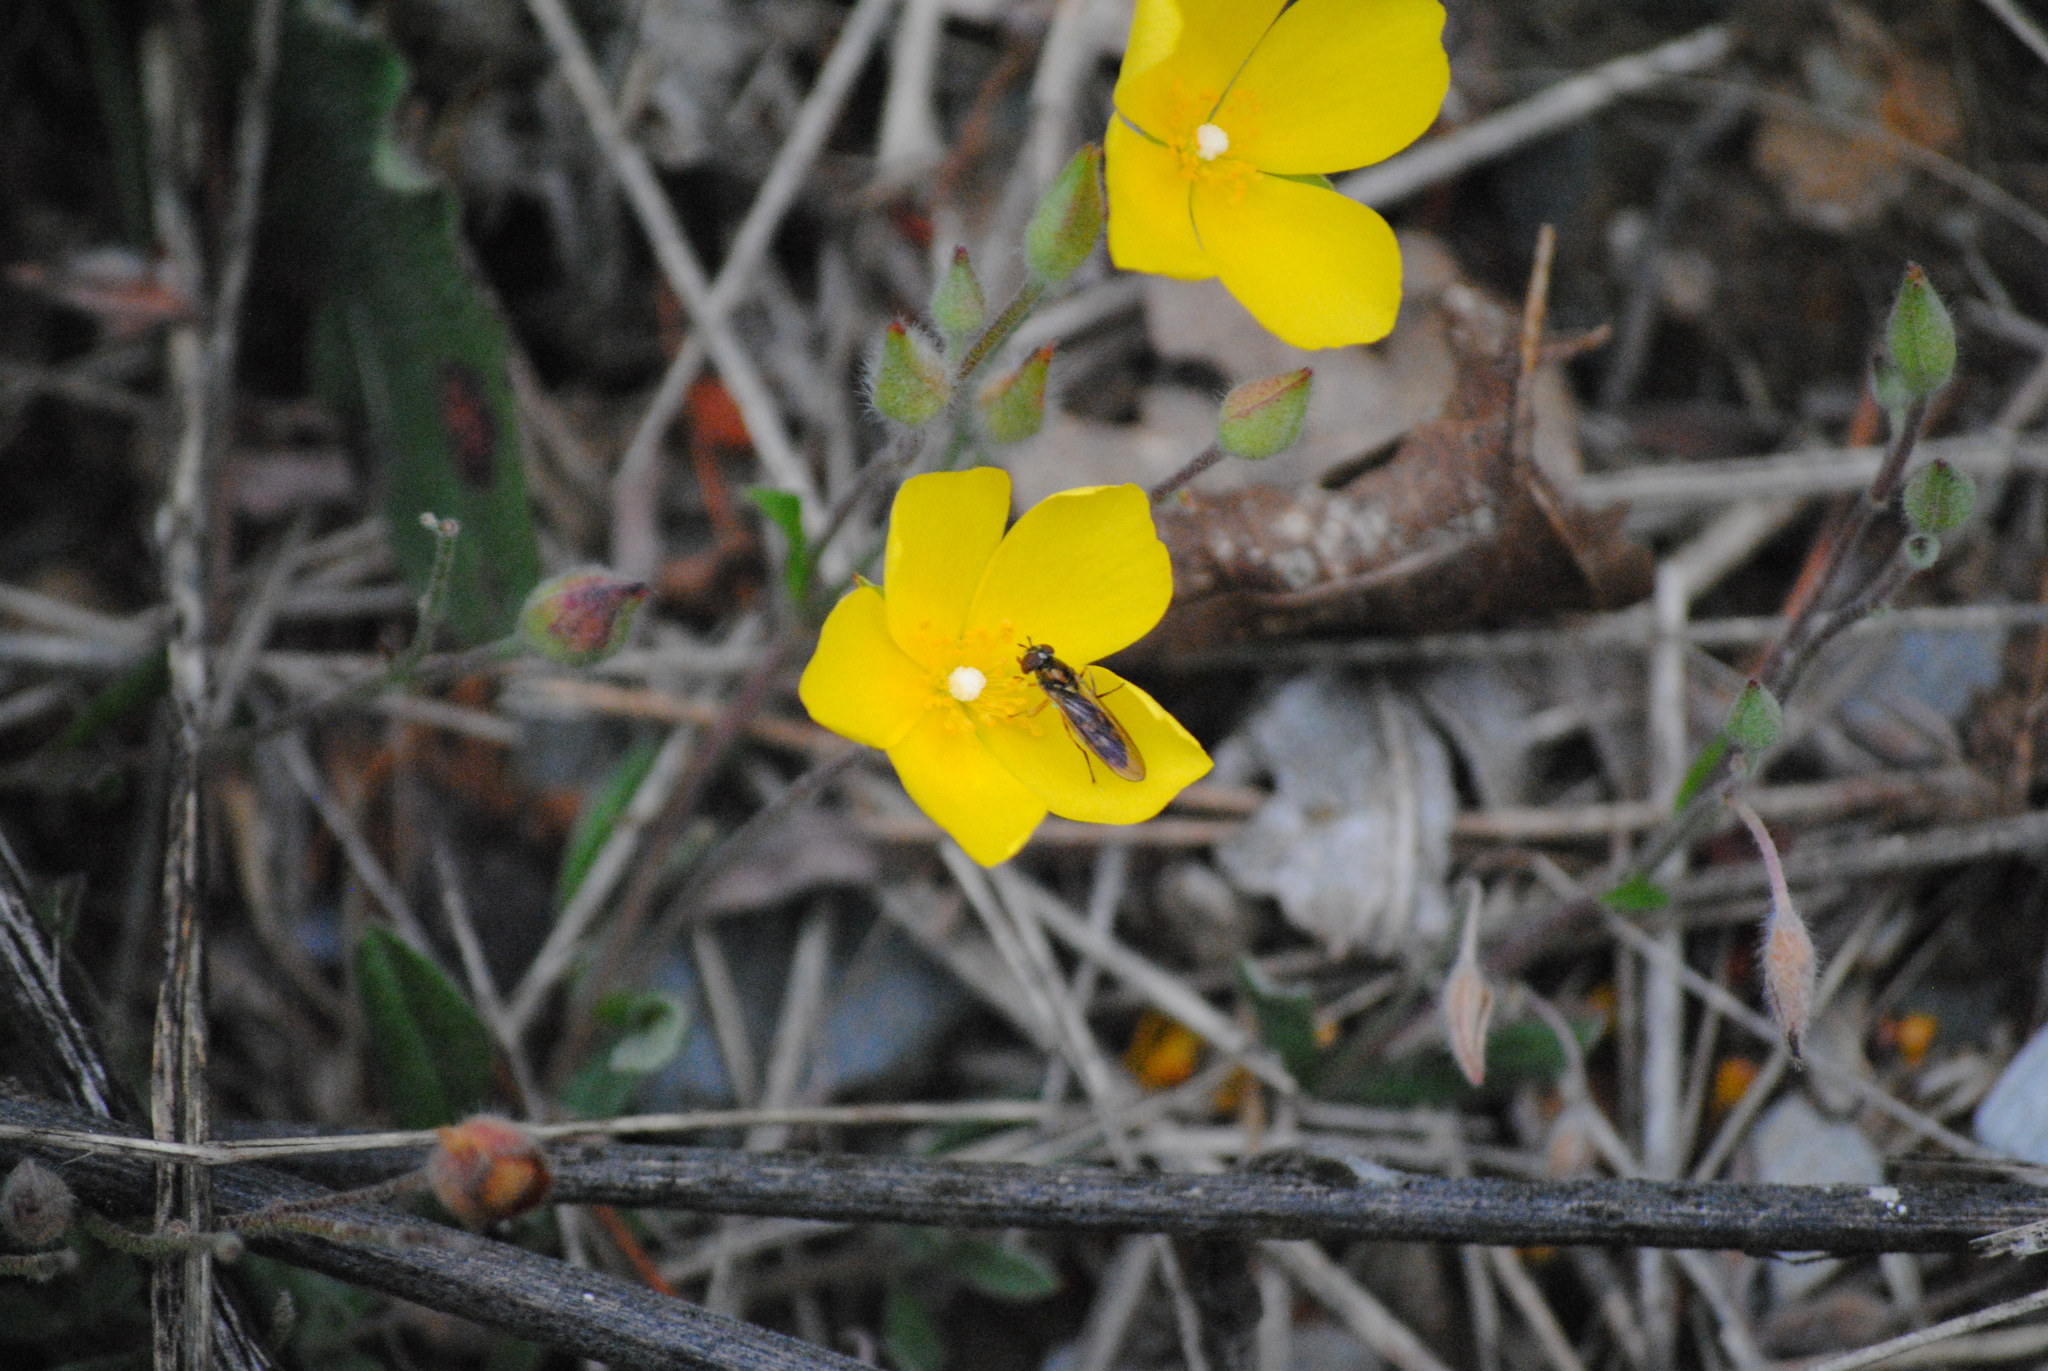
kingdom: Plantae
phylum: Tracheophyta
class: Magnoliopsida
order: Malvales
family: Cistaceae
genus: Halimium
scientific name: Halimium lasianthum
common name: Lisbon false sun-rose
